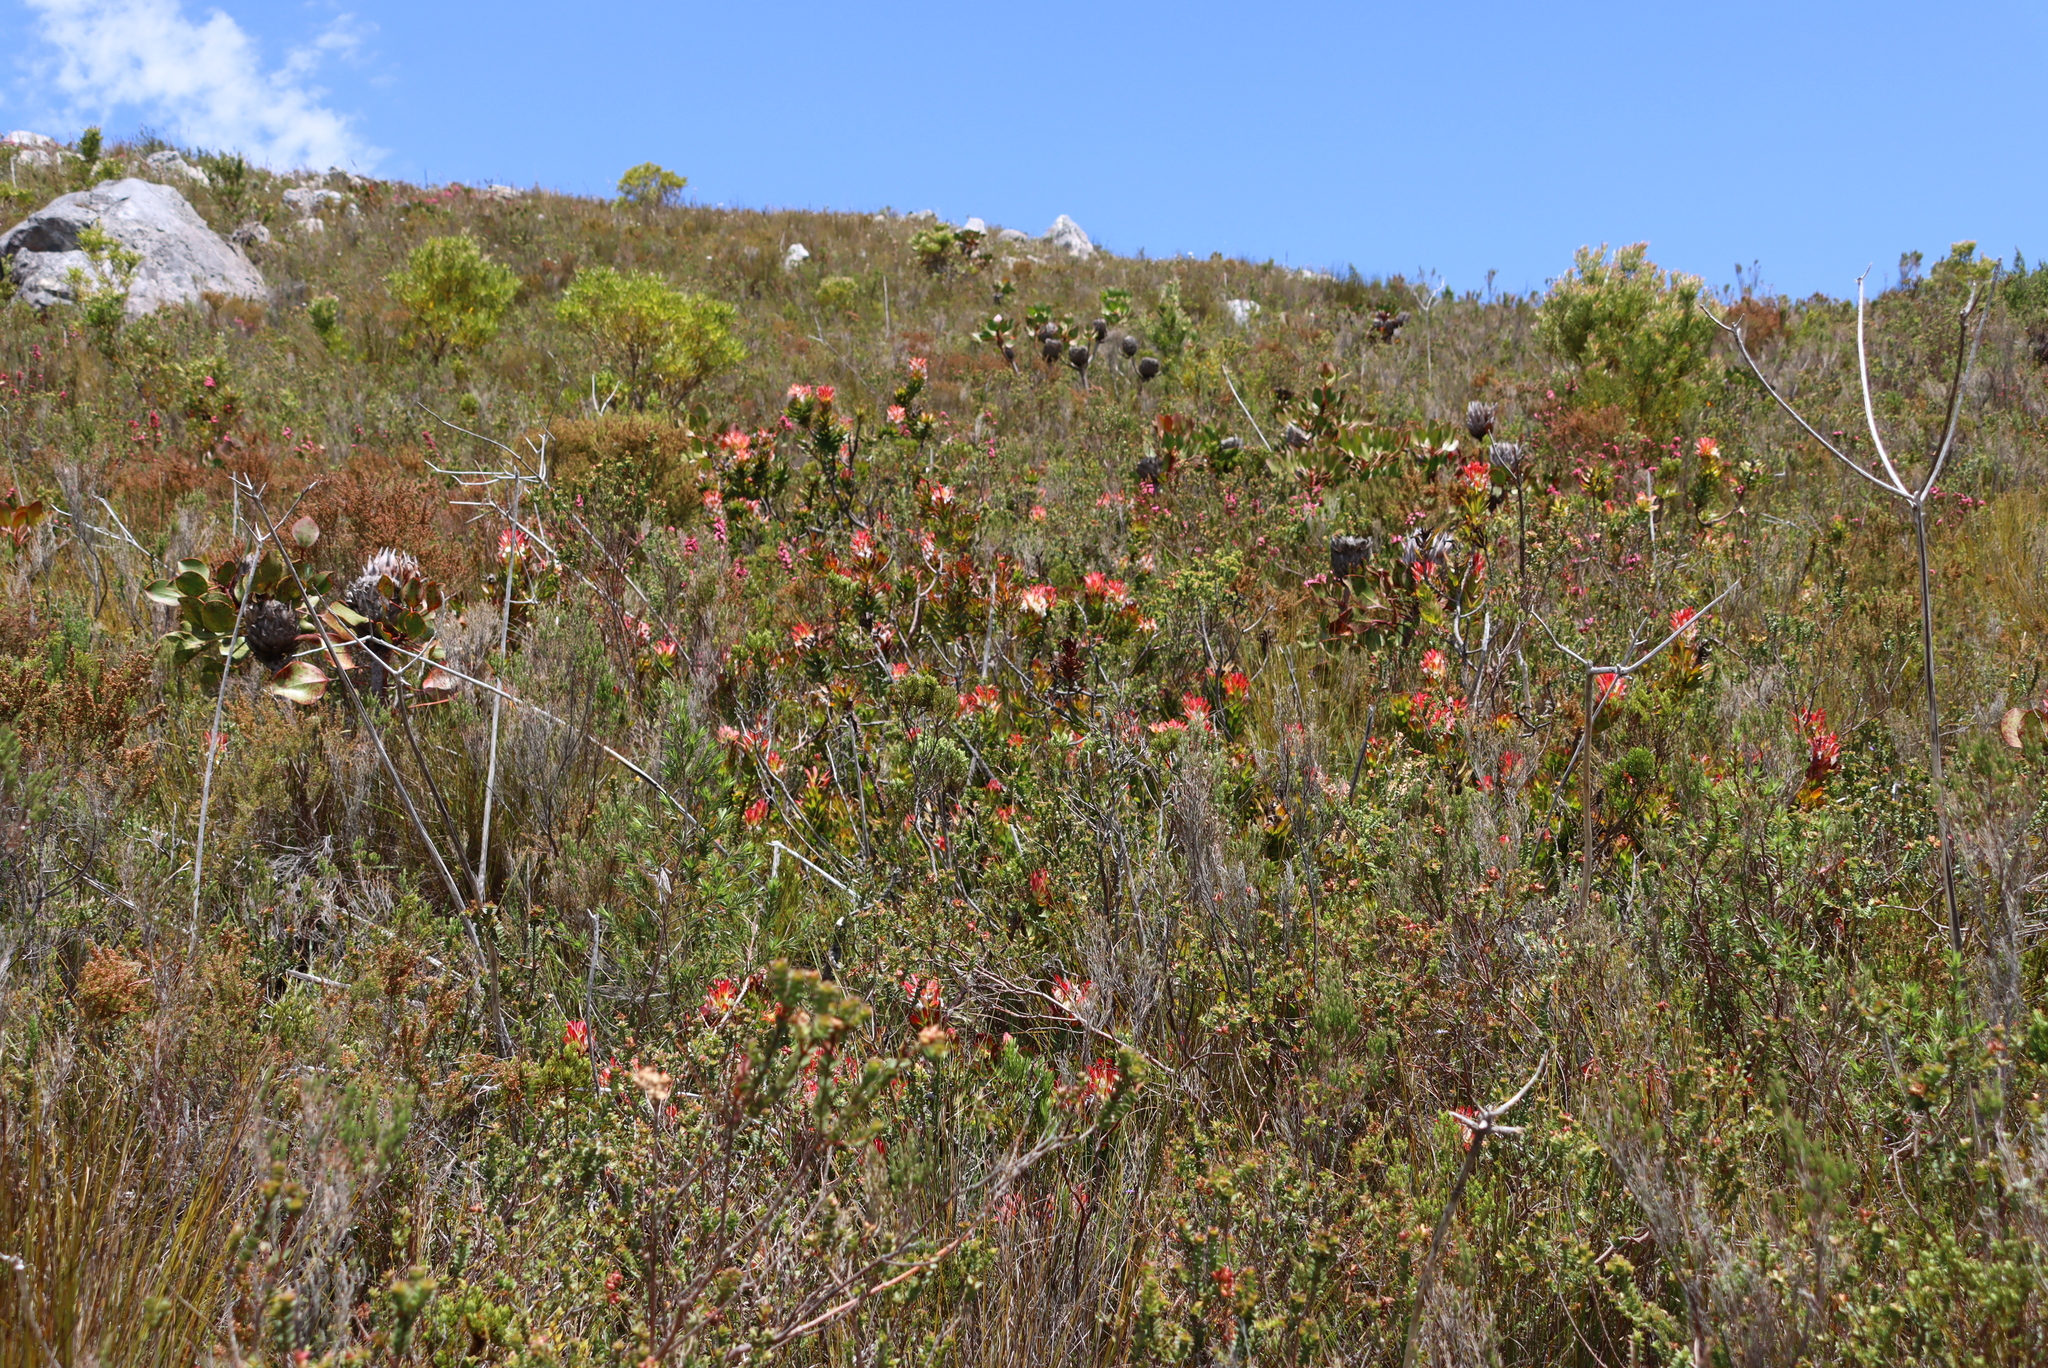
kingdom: Plantae
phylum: Tracheophyta
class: Magnoliopsida
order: Proteales
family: Proteaceae
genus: Protea
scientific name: Protea cynaroides
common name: King protea
